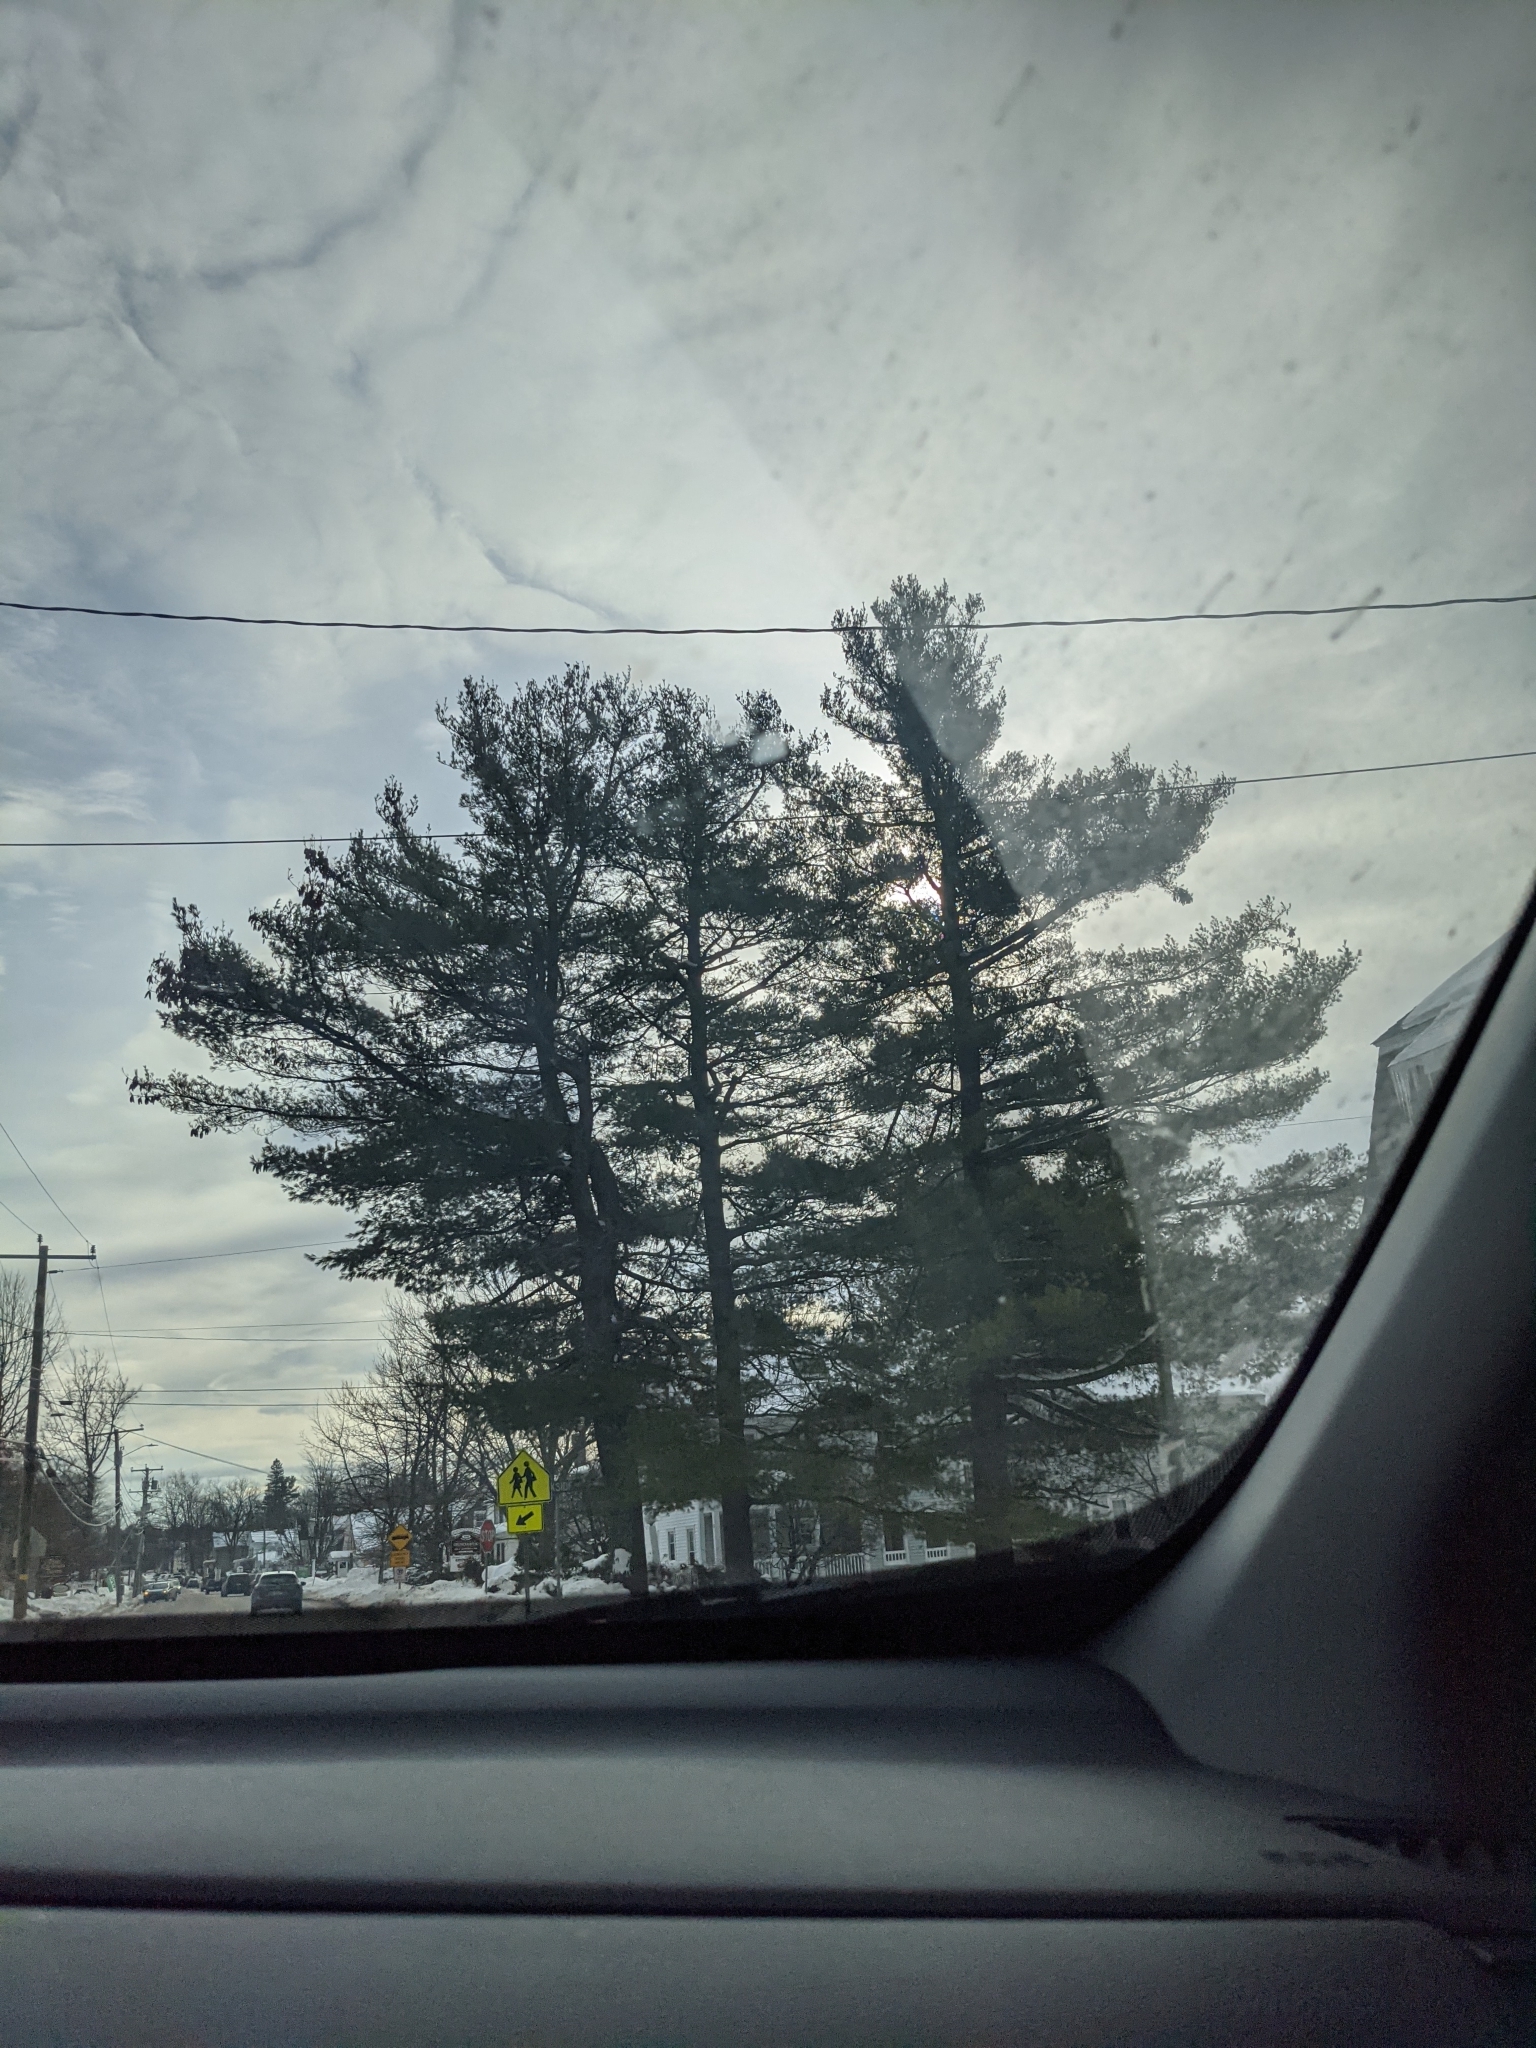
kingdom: Plantae
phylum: Tracheophyta
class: Pinopsida
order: Pinales
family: Pinaceae
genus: Pinus
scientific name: Pinus strobus
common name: Weymouth pine
